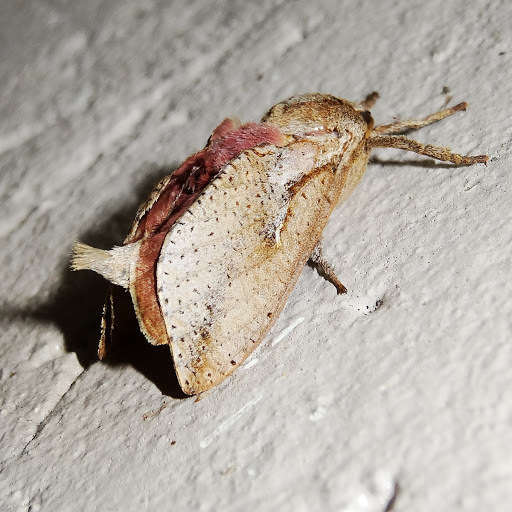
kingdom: Animalia
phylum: Arthropoda
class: Insecta
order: Lepidoptera
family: Hepialidae
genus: Elhamma
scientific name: Elhamma australasiae
